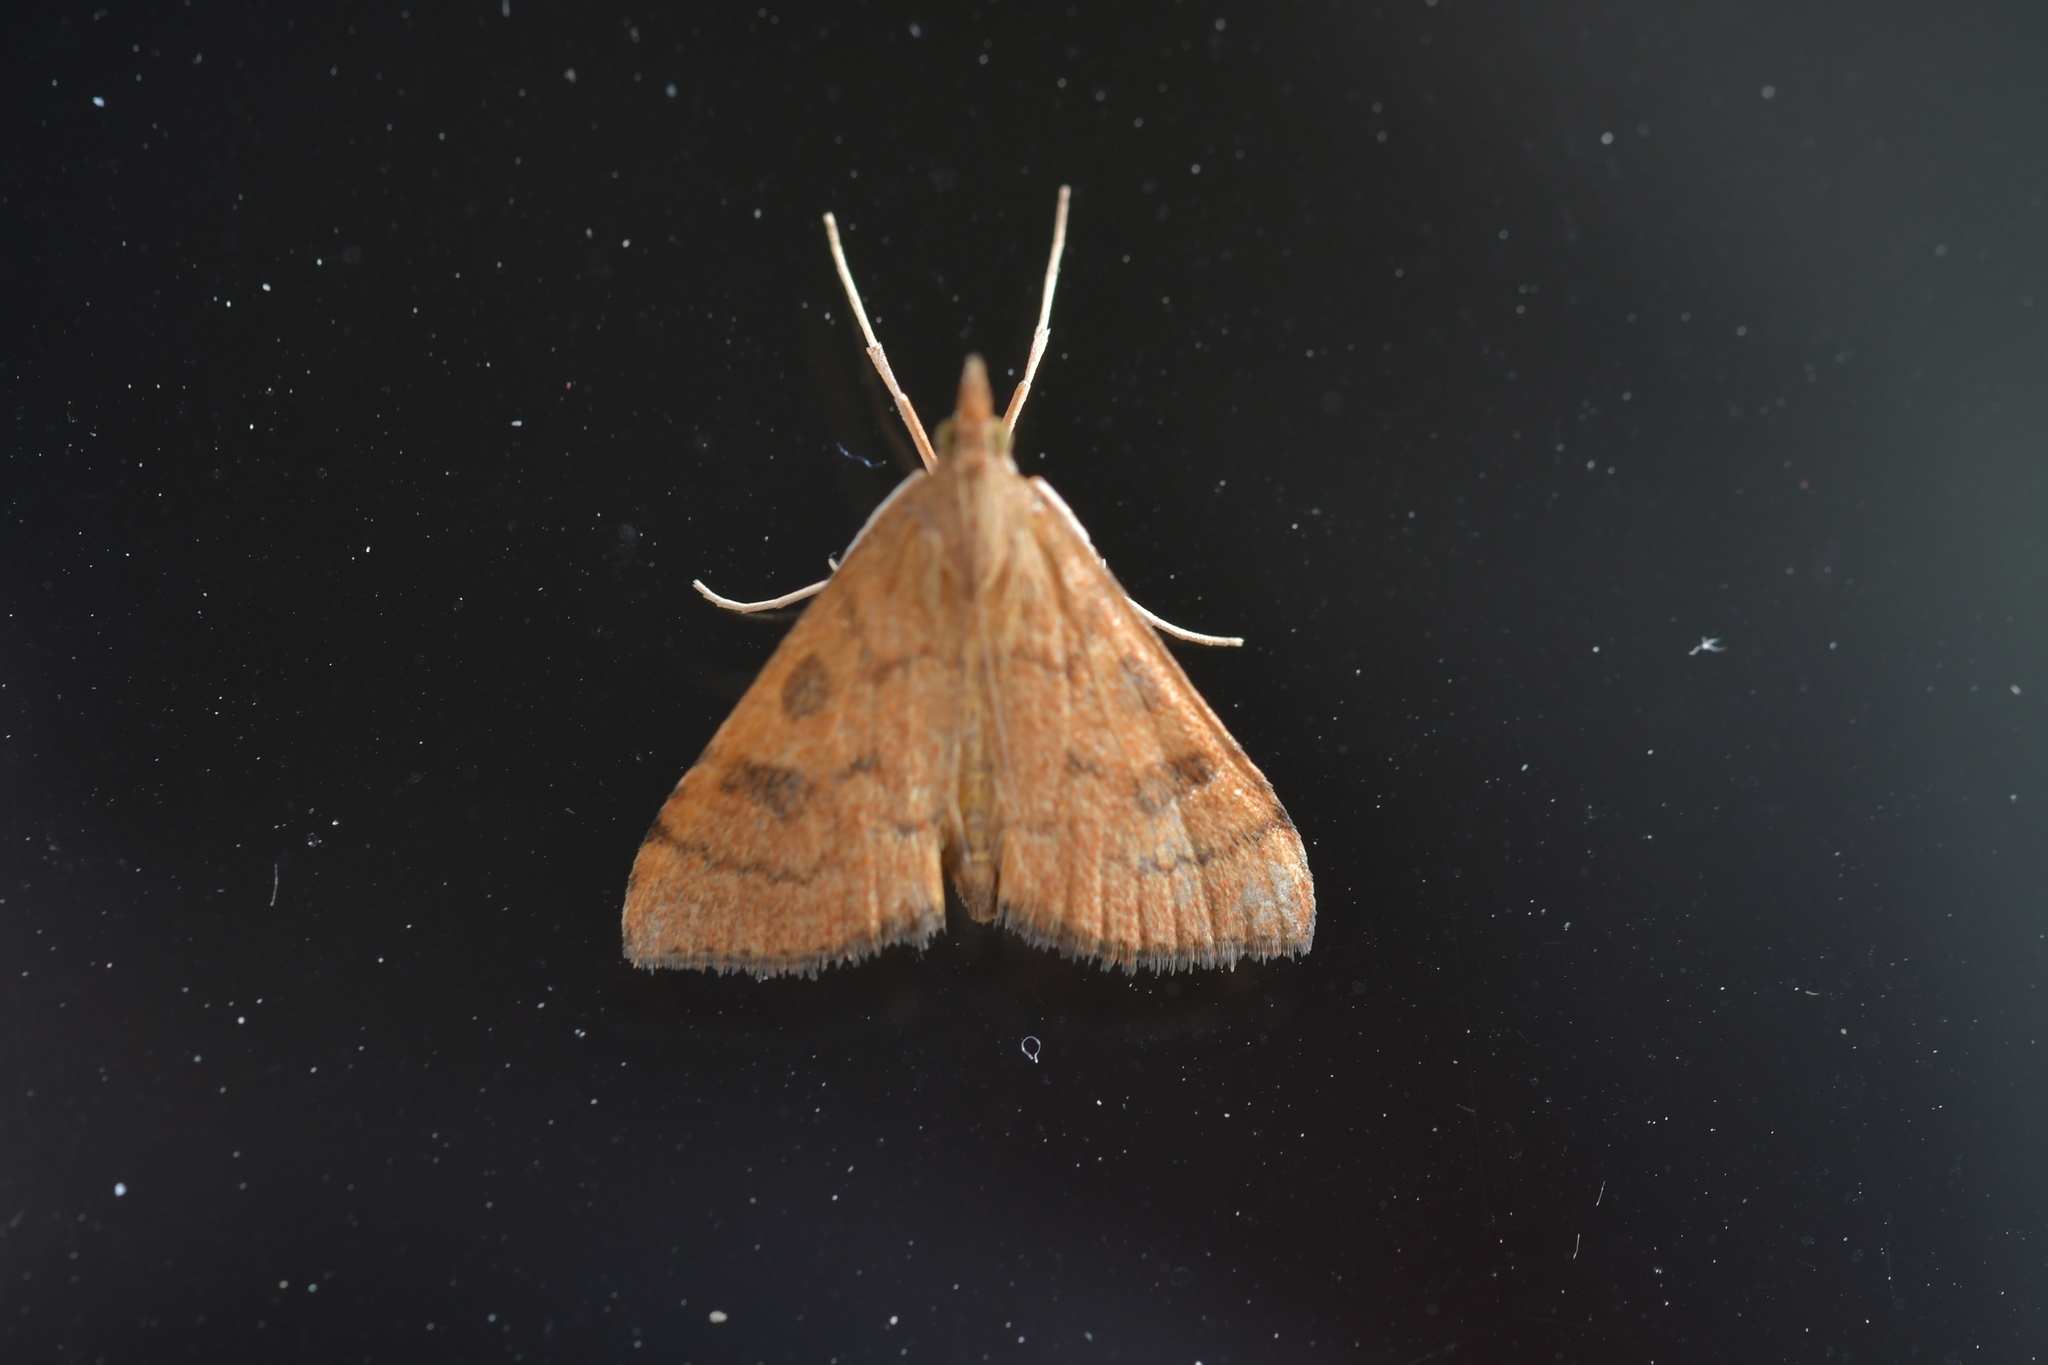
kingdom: Animalia
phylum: Arthropoda
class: Insecta
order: Lepidoptera
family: Crambidae
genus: Udea
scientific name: Udea Mnesictena flavidalis
